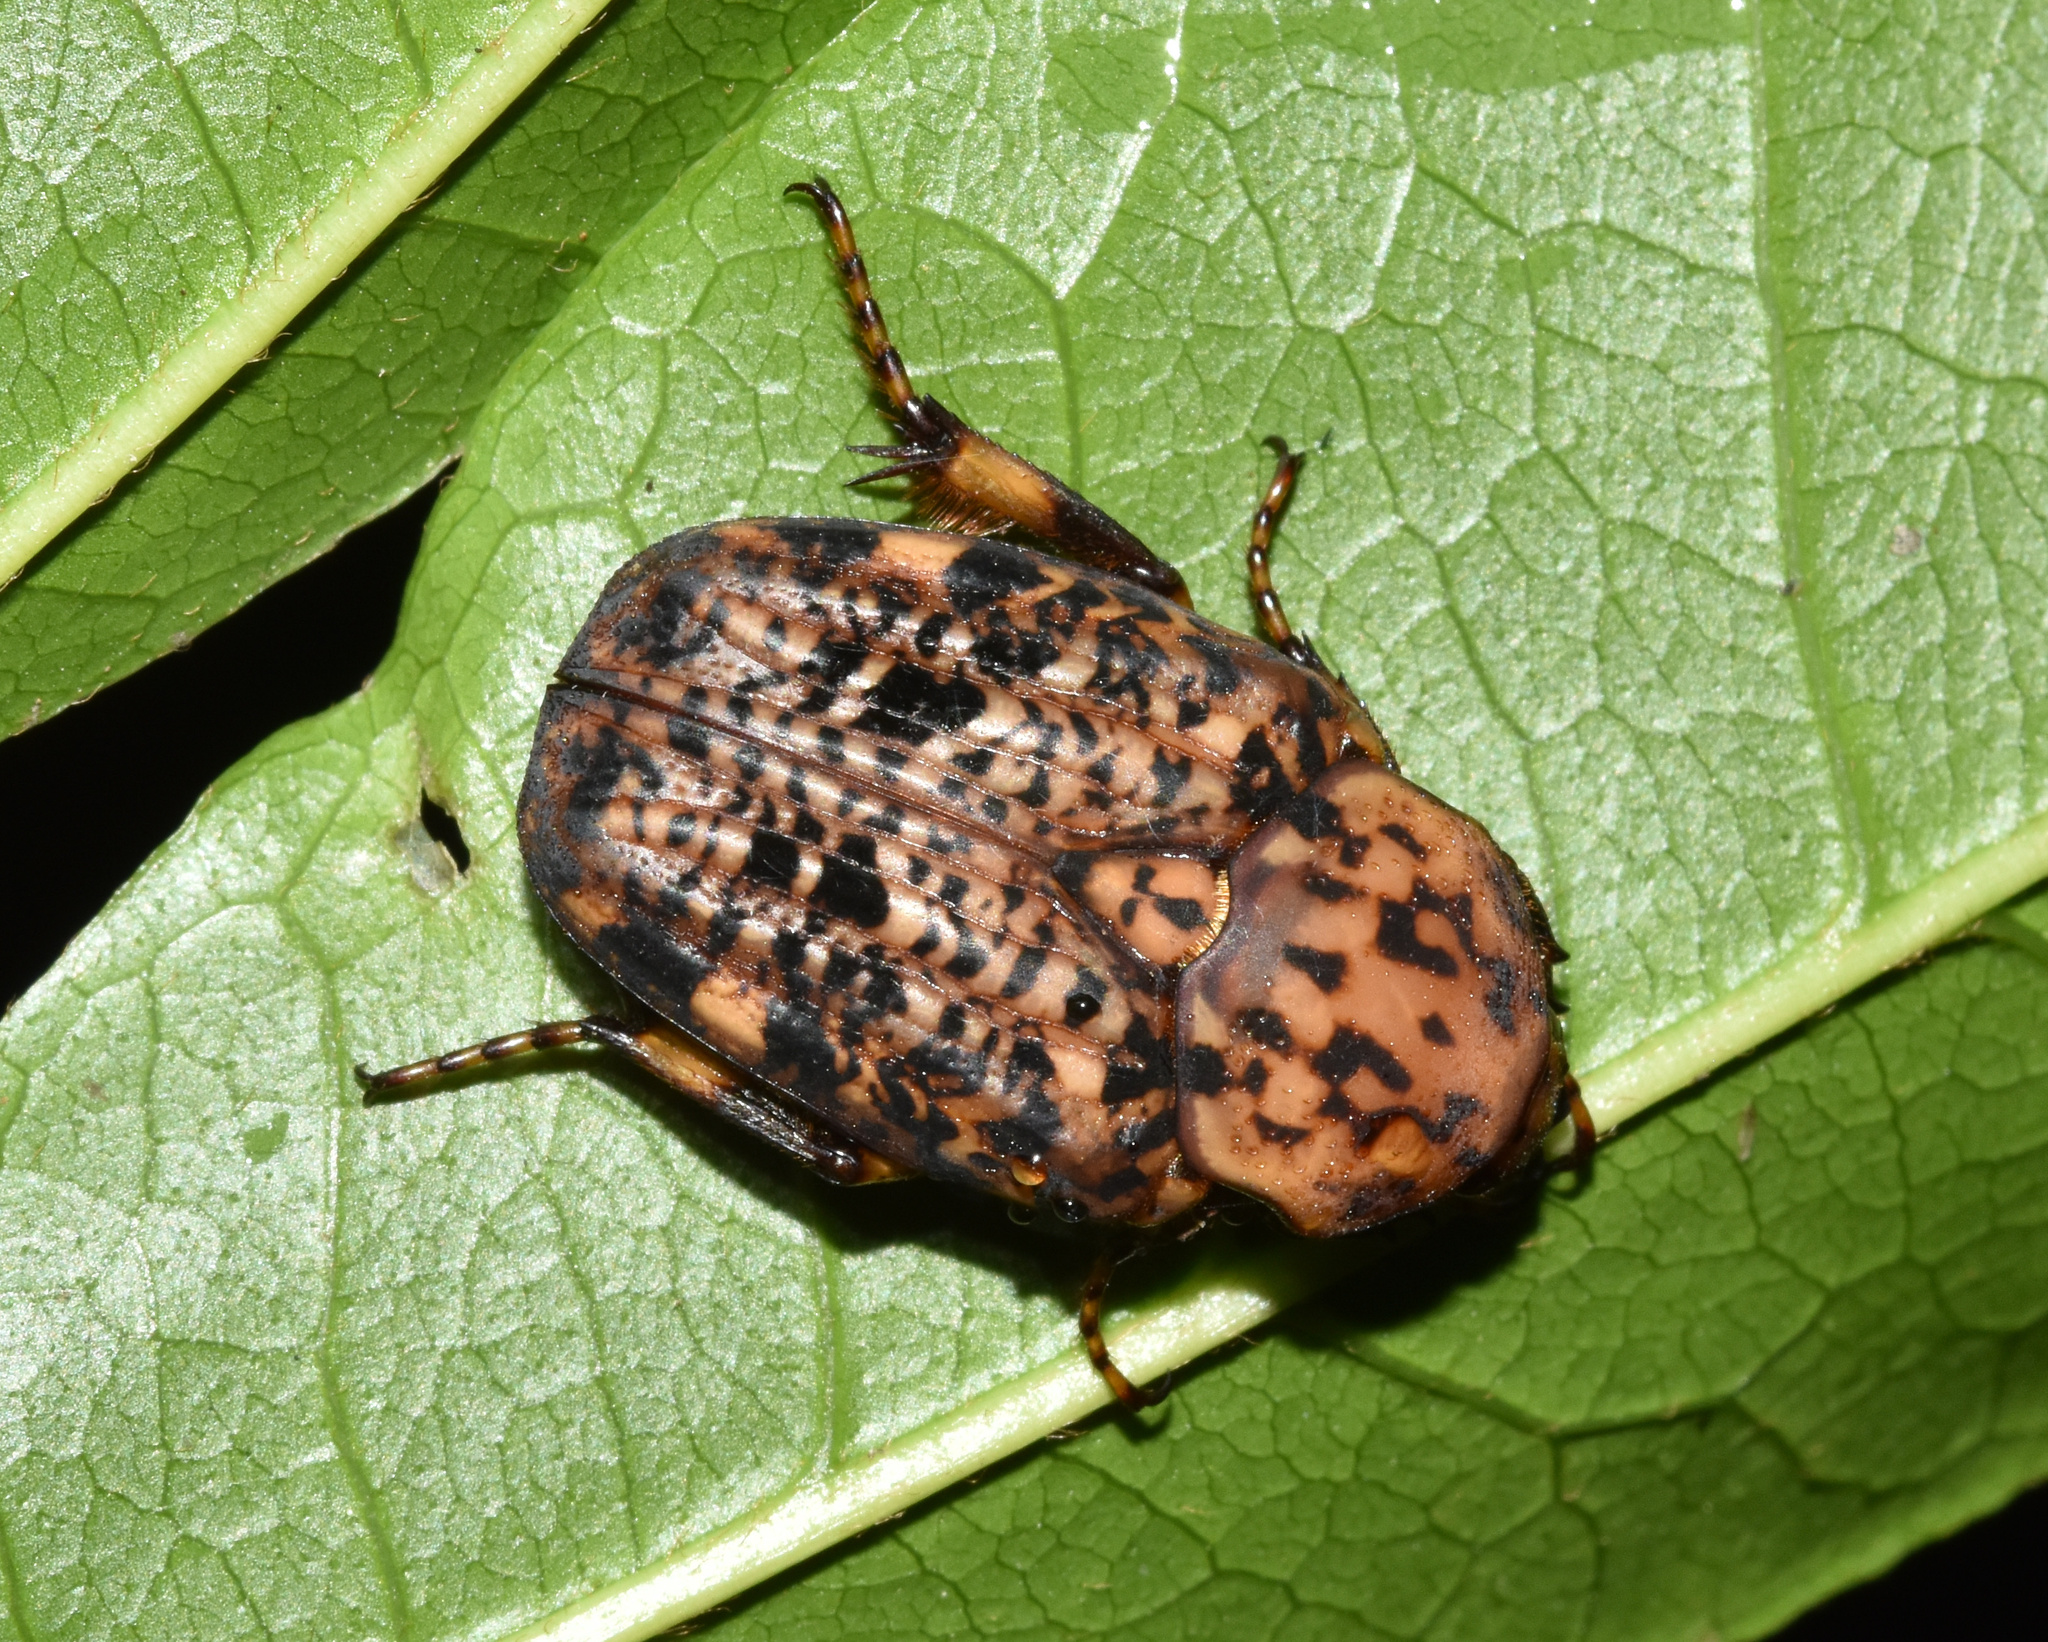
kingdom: Animalia
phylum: Arthropoda
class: Insecta
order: Coleoptera
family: Scarabaeidae
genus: Porphyronota
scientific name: Porphyronota maculatissima
